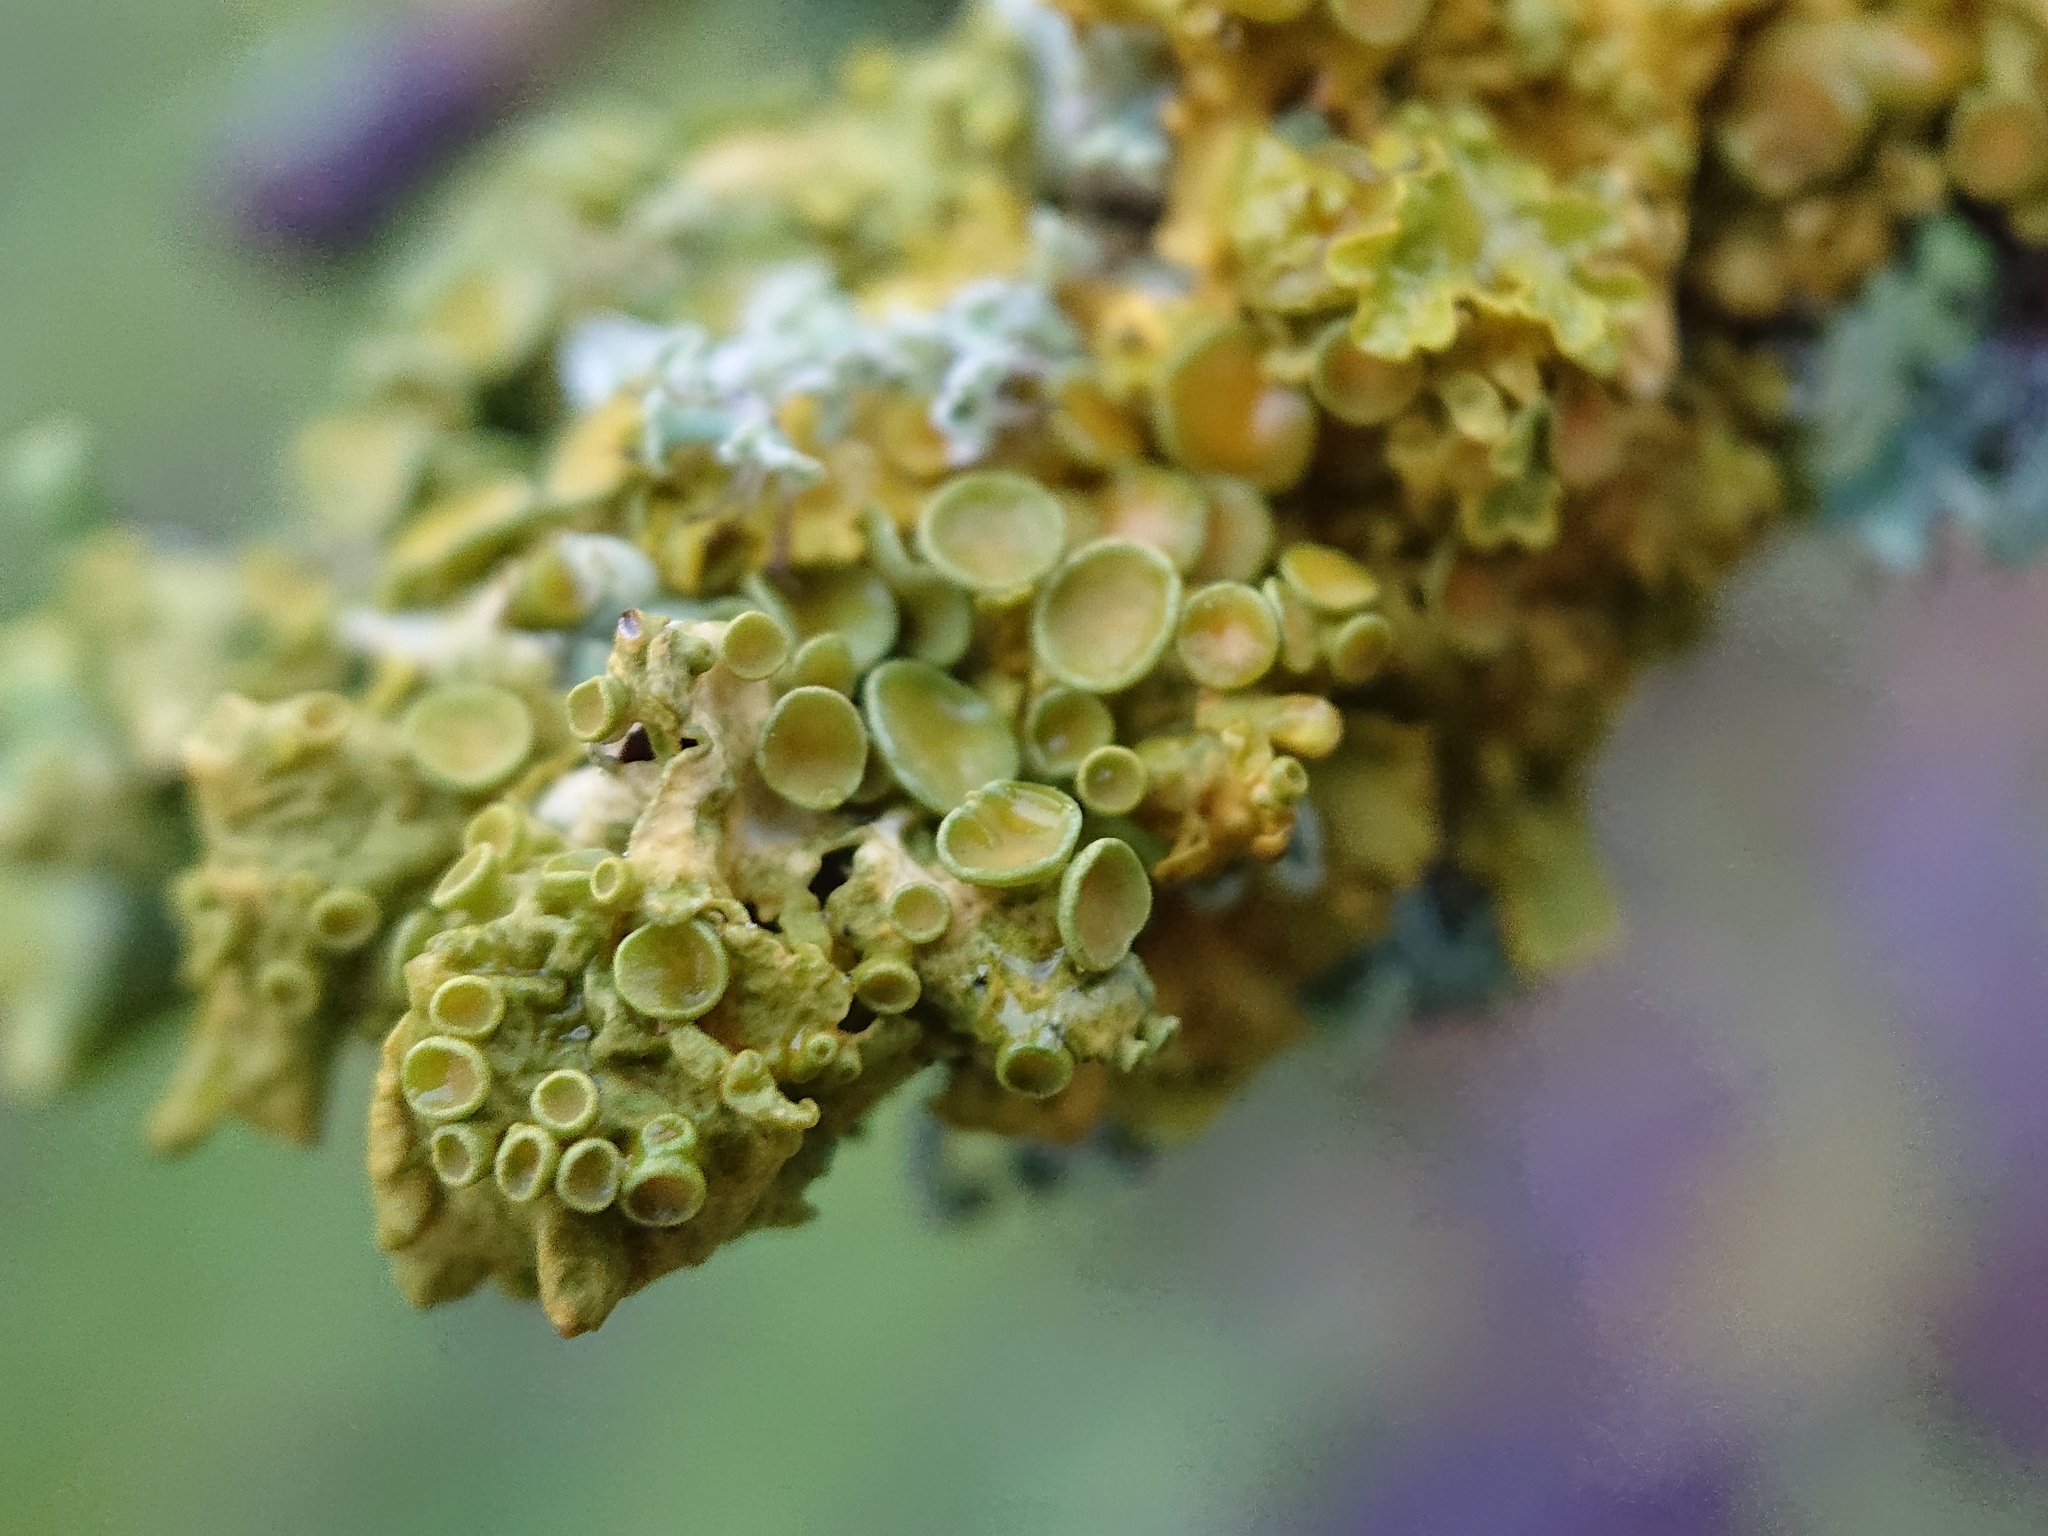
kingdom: Fungi
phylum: Ascomycota
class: Lecanoromycetes
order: Teloschistales
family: Teloschistaceae
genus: Xanthoria
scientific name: Xanthoria parietina
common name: Common orange lichen
